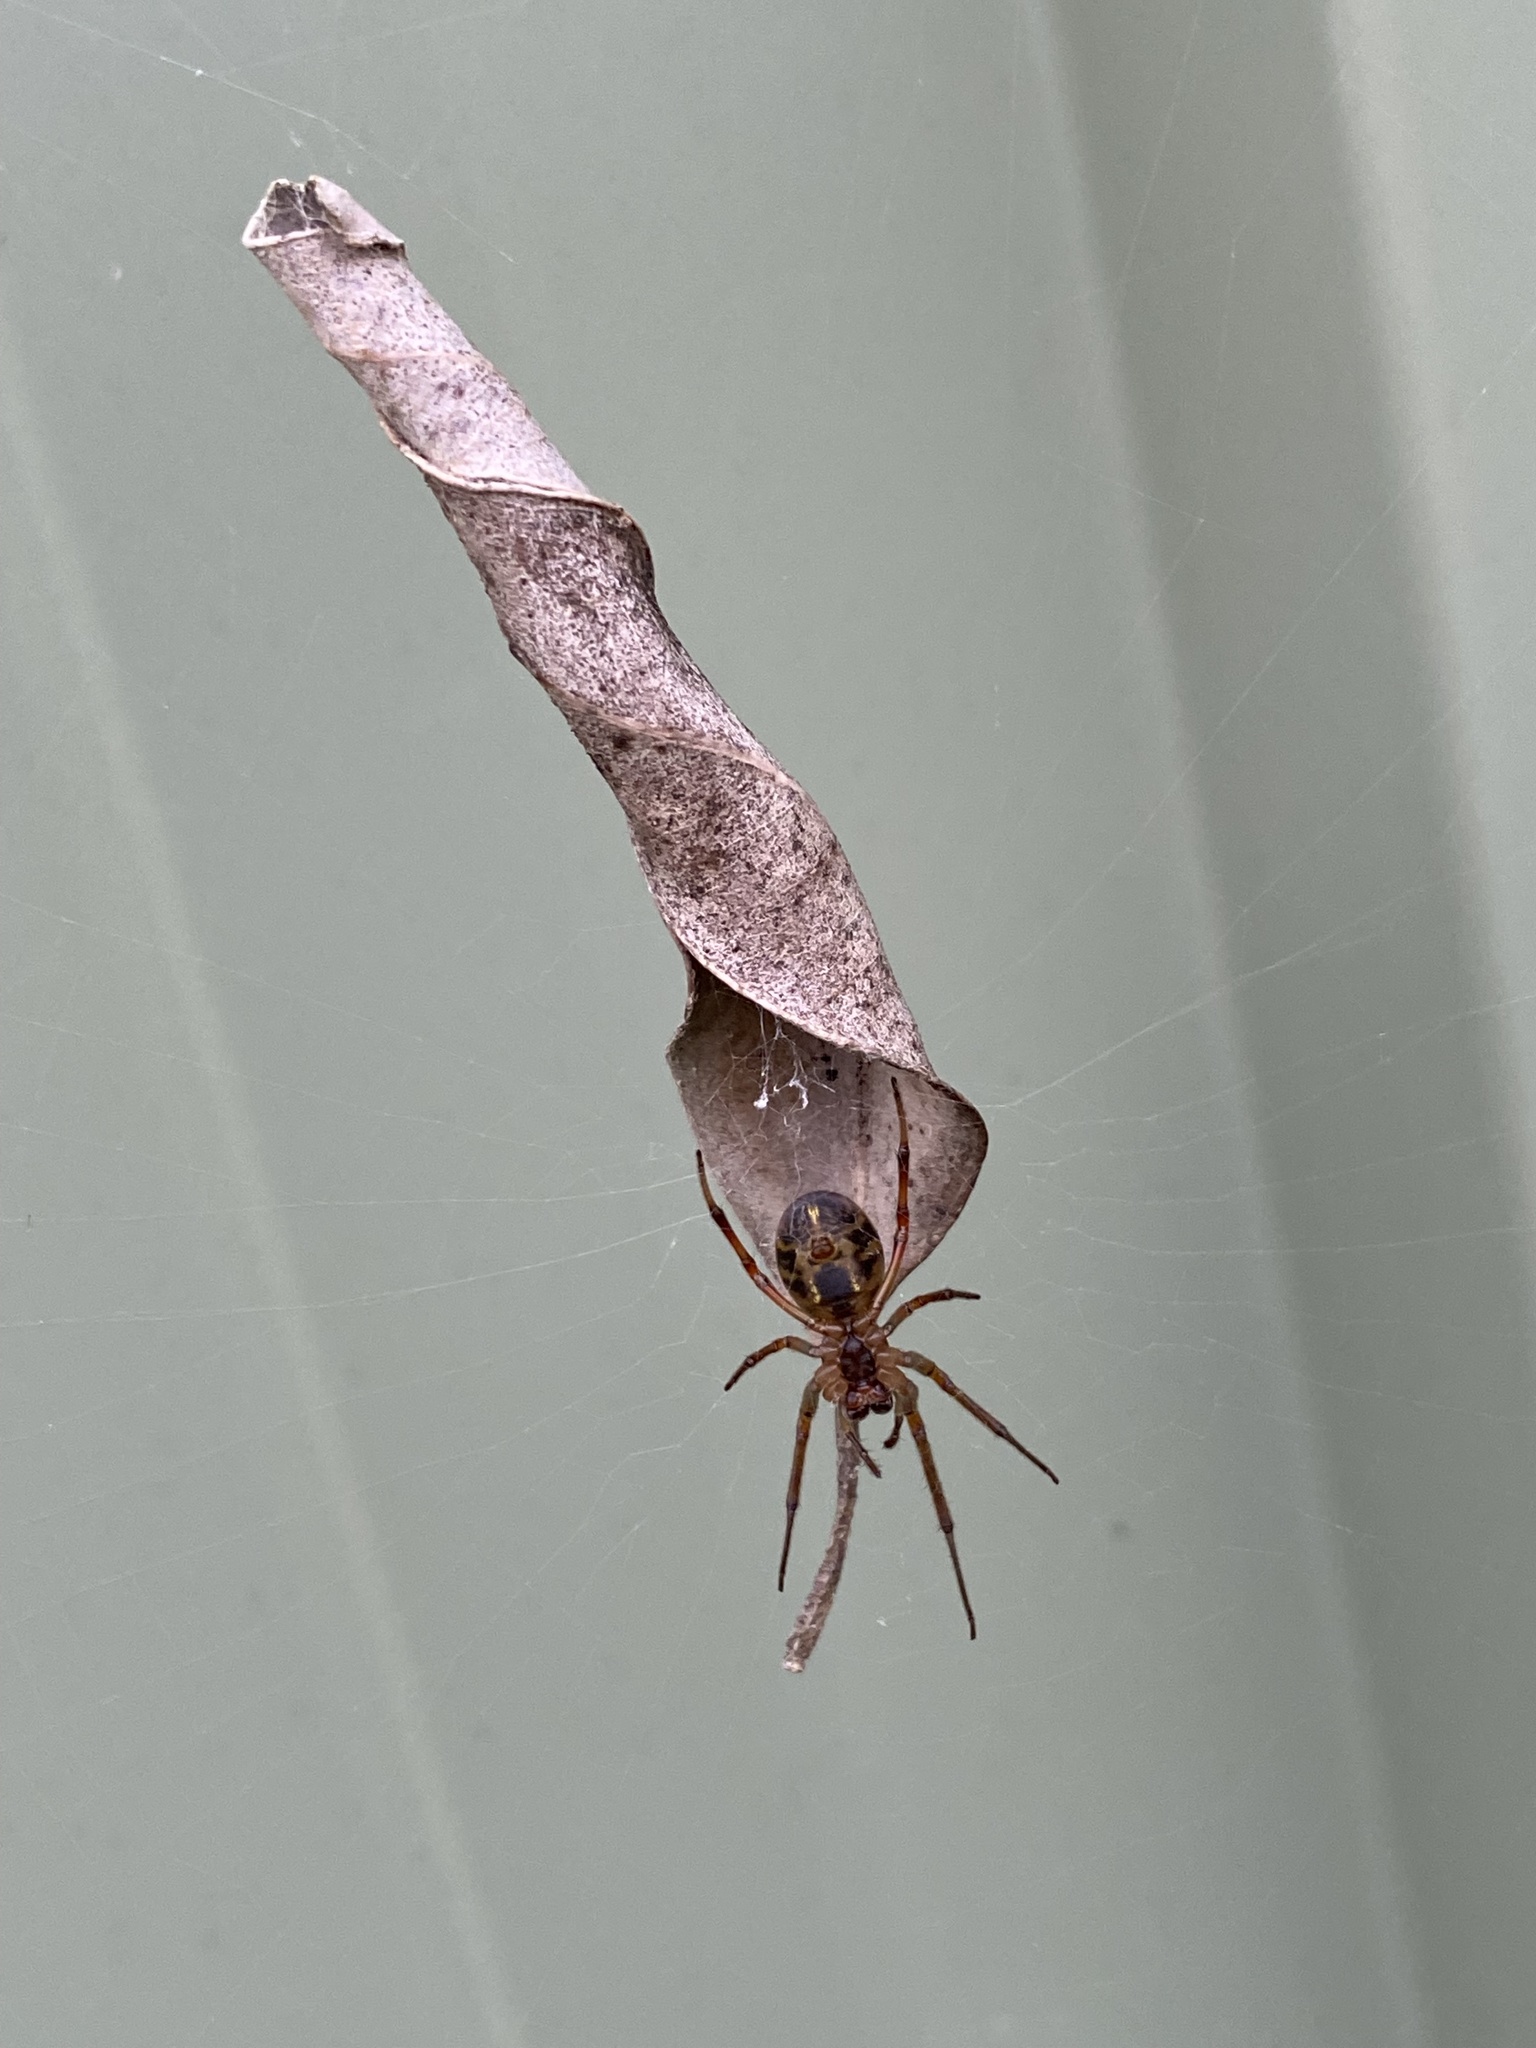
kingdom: Animalia
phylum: Arthropoda
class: Arachnida
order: Araneae
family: Araneidae
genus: Phonognatha
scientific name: Phonognatha graeffei
